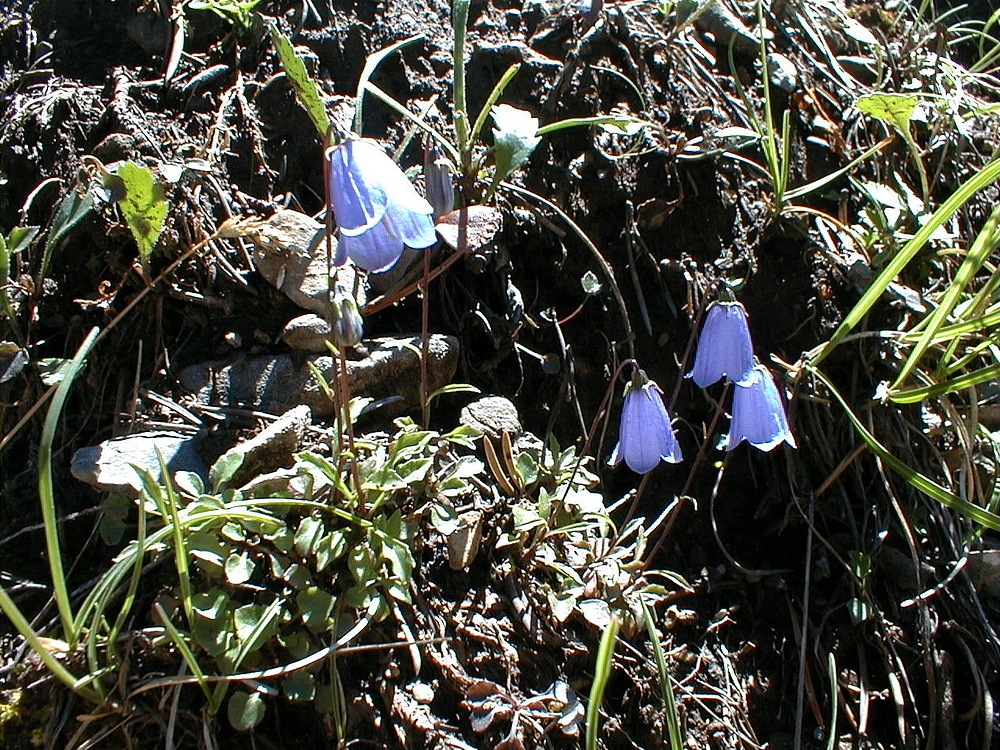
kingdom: Plantae
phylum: Tracheophyta
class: Magnoliopsida
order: Asterales
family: Campanulaceae
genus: Campanula
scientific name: Campanula scheuchzeri
